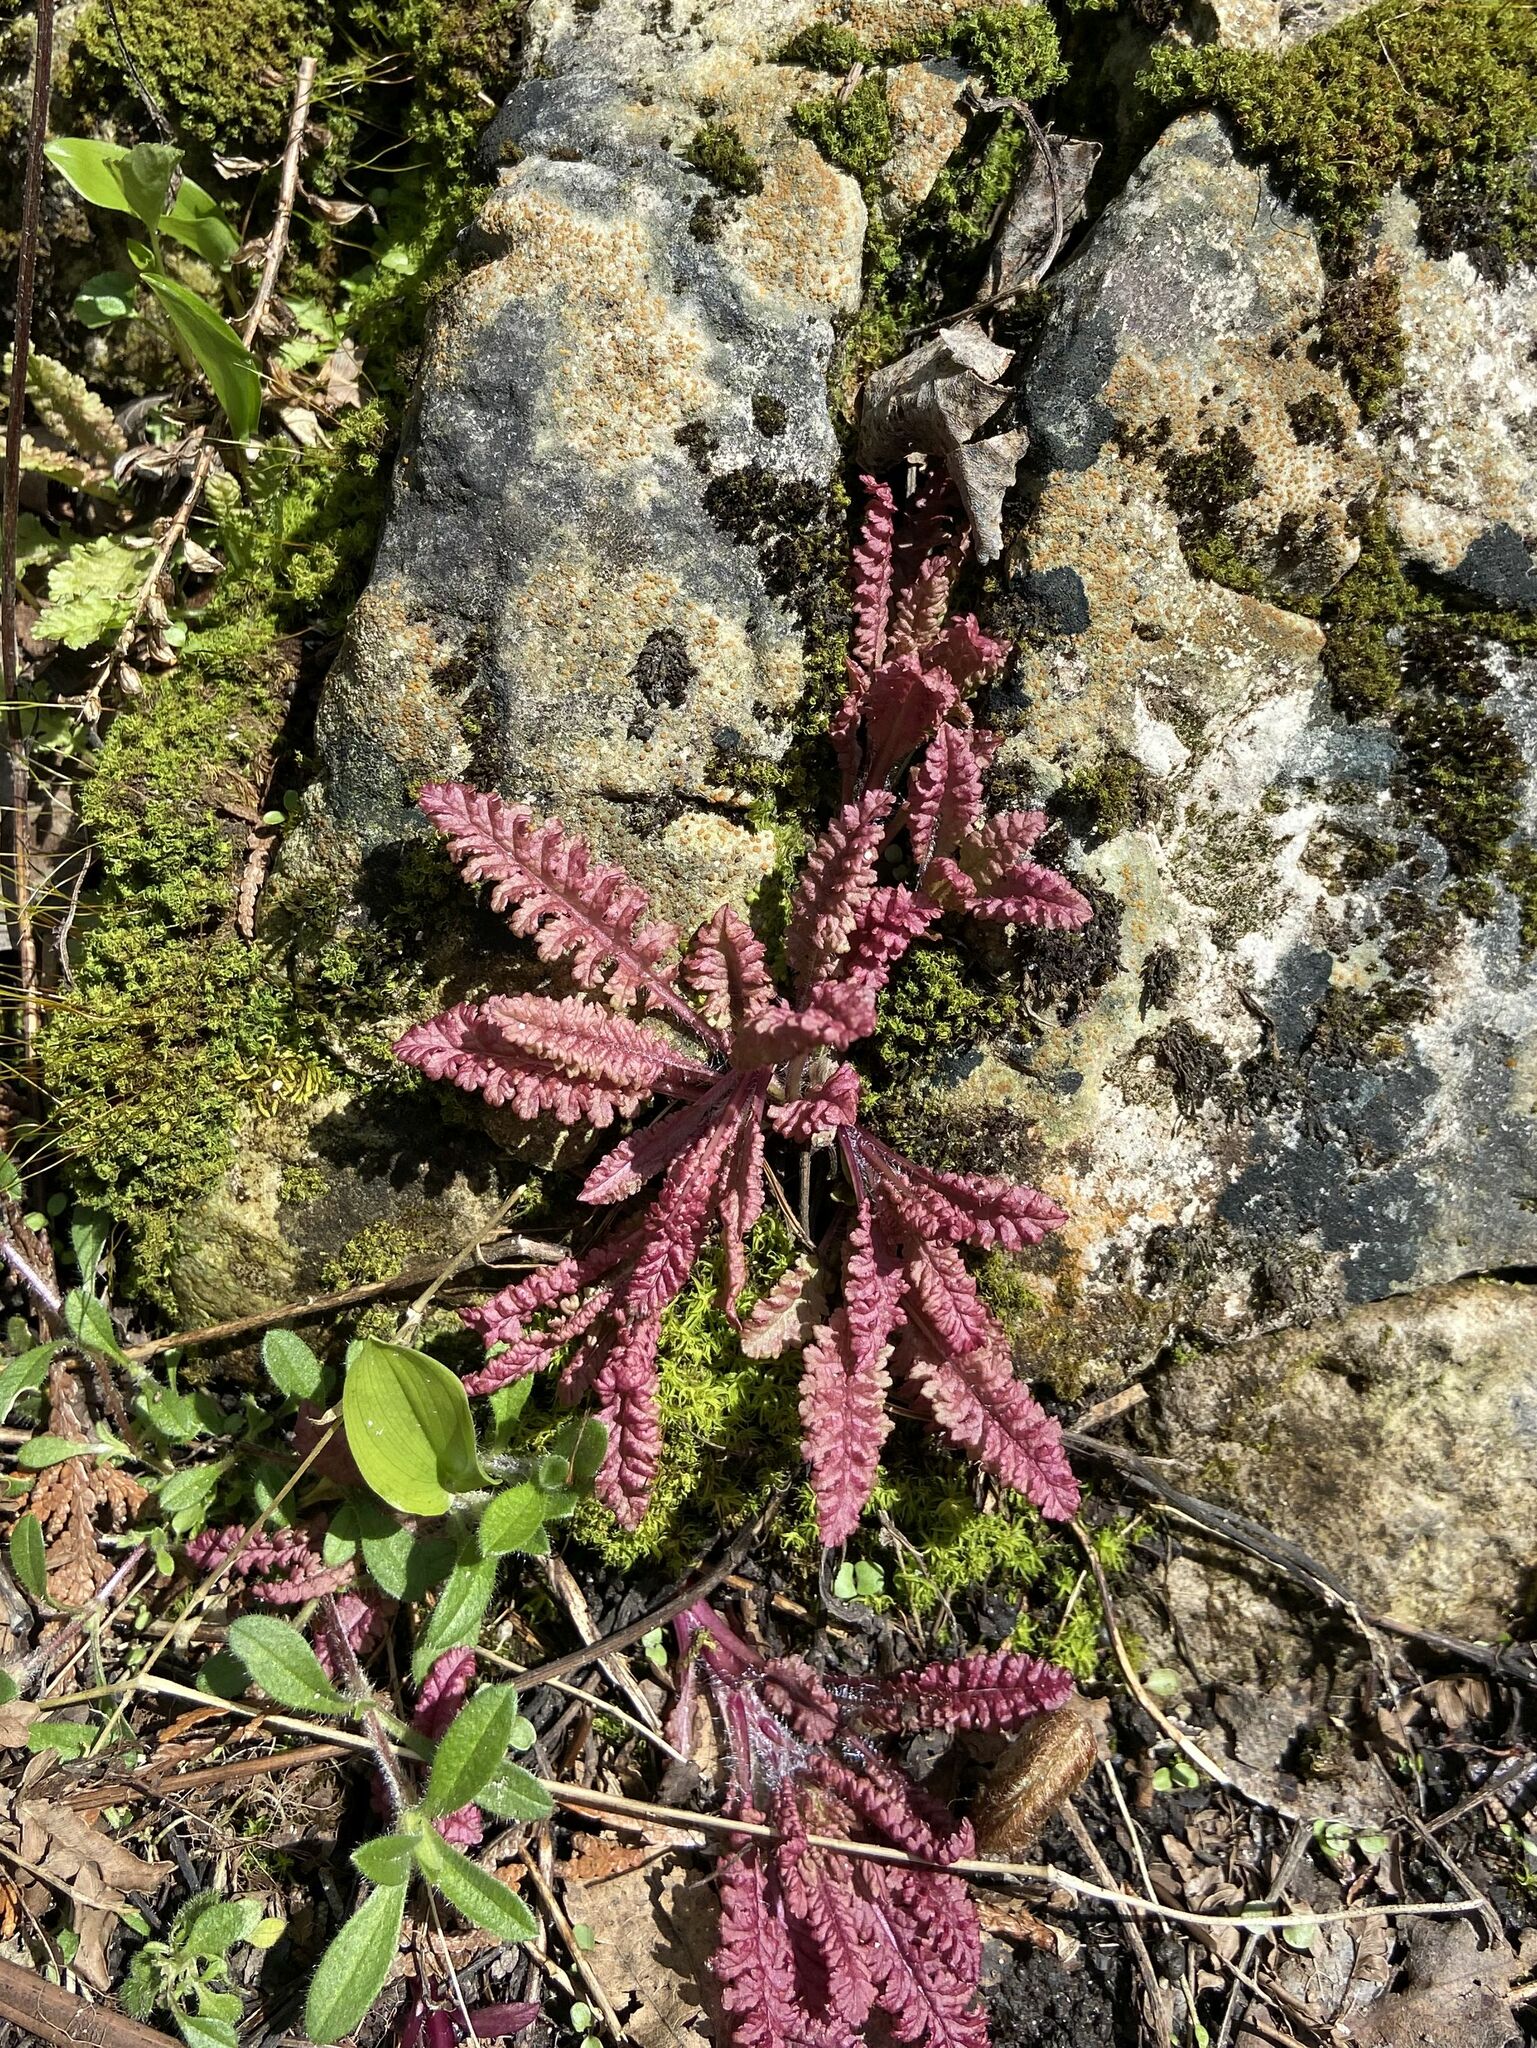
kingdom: Plantae
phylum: Tracheophyta
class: Magnoliopsida
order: Lamiales
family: Orobanchaceae
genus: Pedicularis
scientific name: Pedicularis canadensis
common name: Early lousewort
